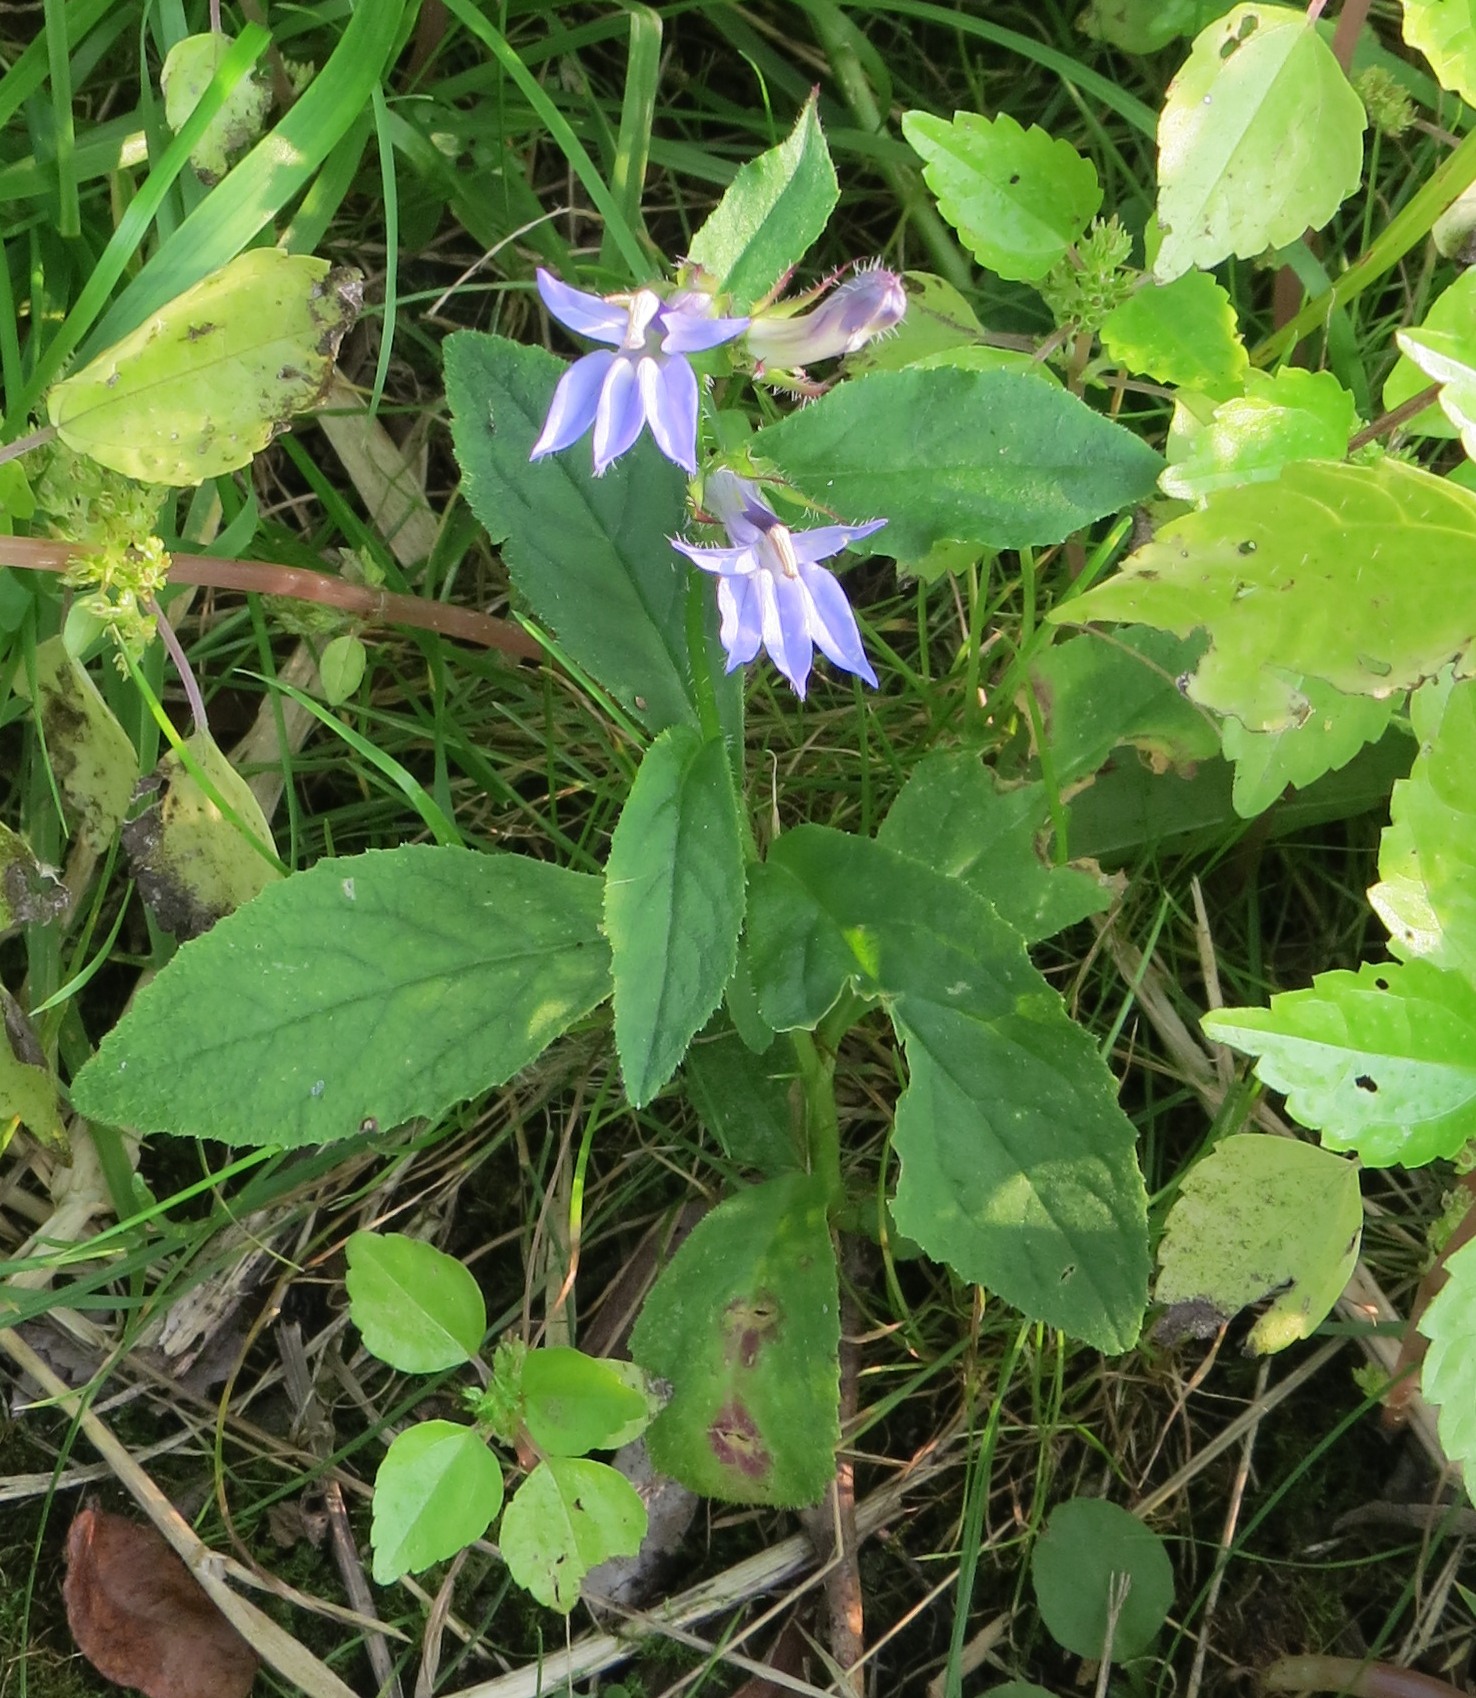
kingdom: Plantae
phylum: Tracheophyta
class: Magnoliopsida
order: Asterales
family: Campanulaceae
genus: Lobelia
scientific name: Lobelia siphilitica
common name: Great lobelia
